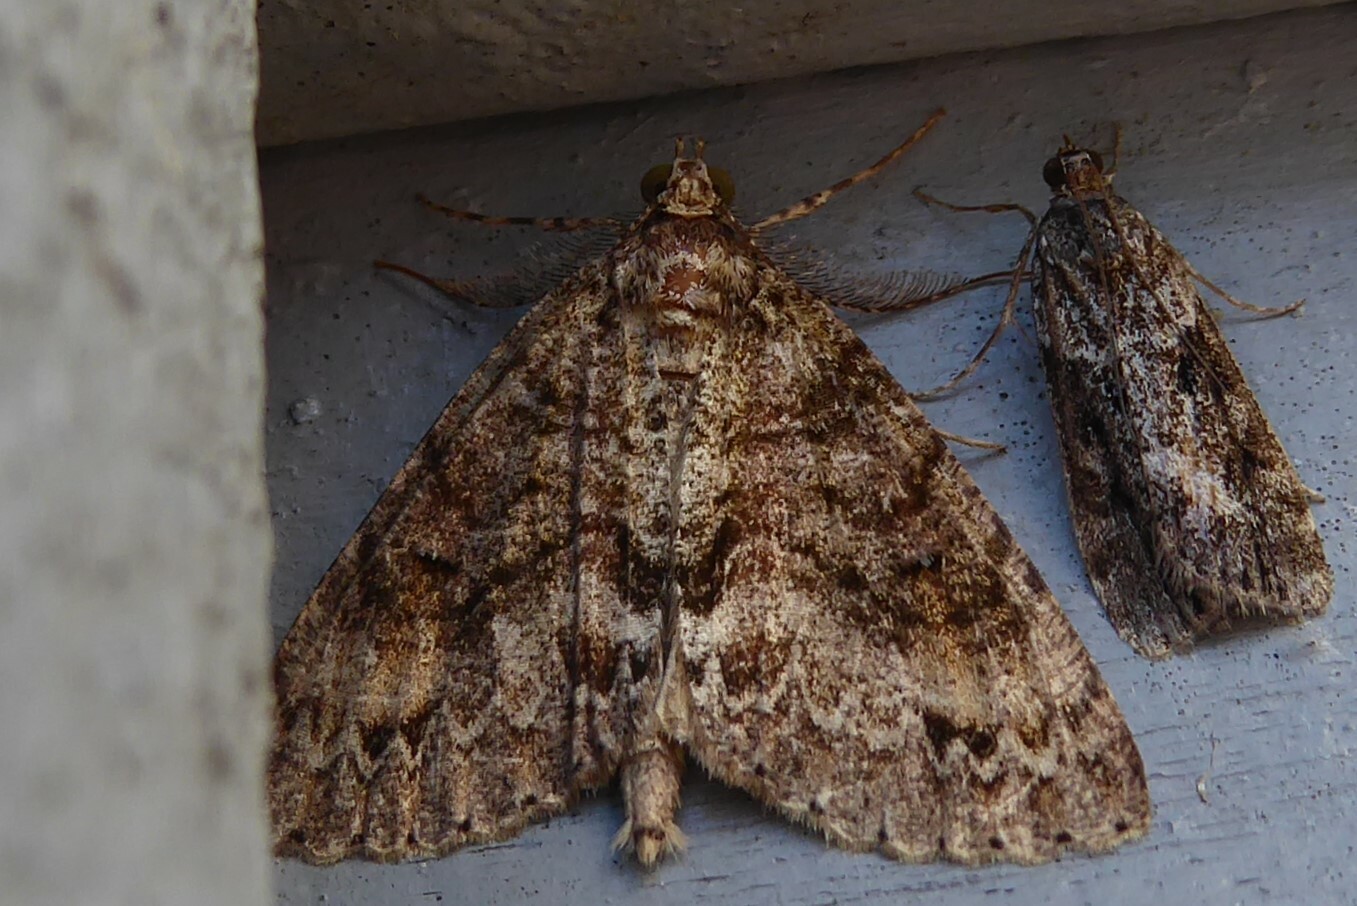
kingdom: Animalia
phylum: Arthropoda
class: Insecta
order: Lepidoptera
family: Geometridae
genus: Pseudocoremia
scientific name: Pseudocoremia suavis
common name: Common forest looper
